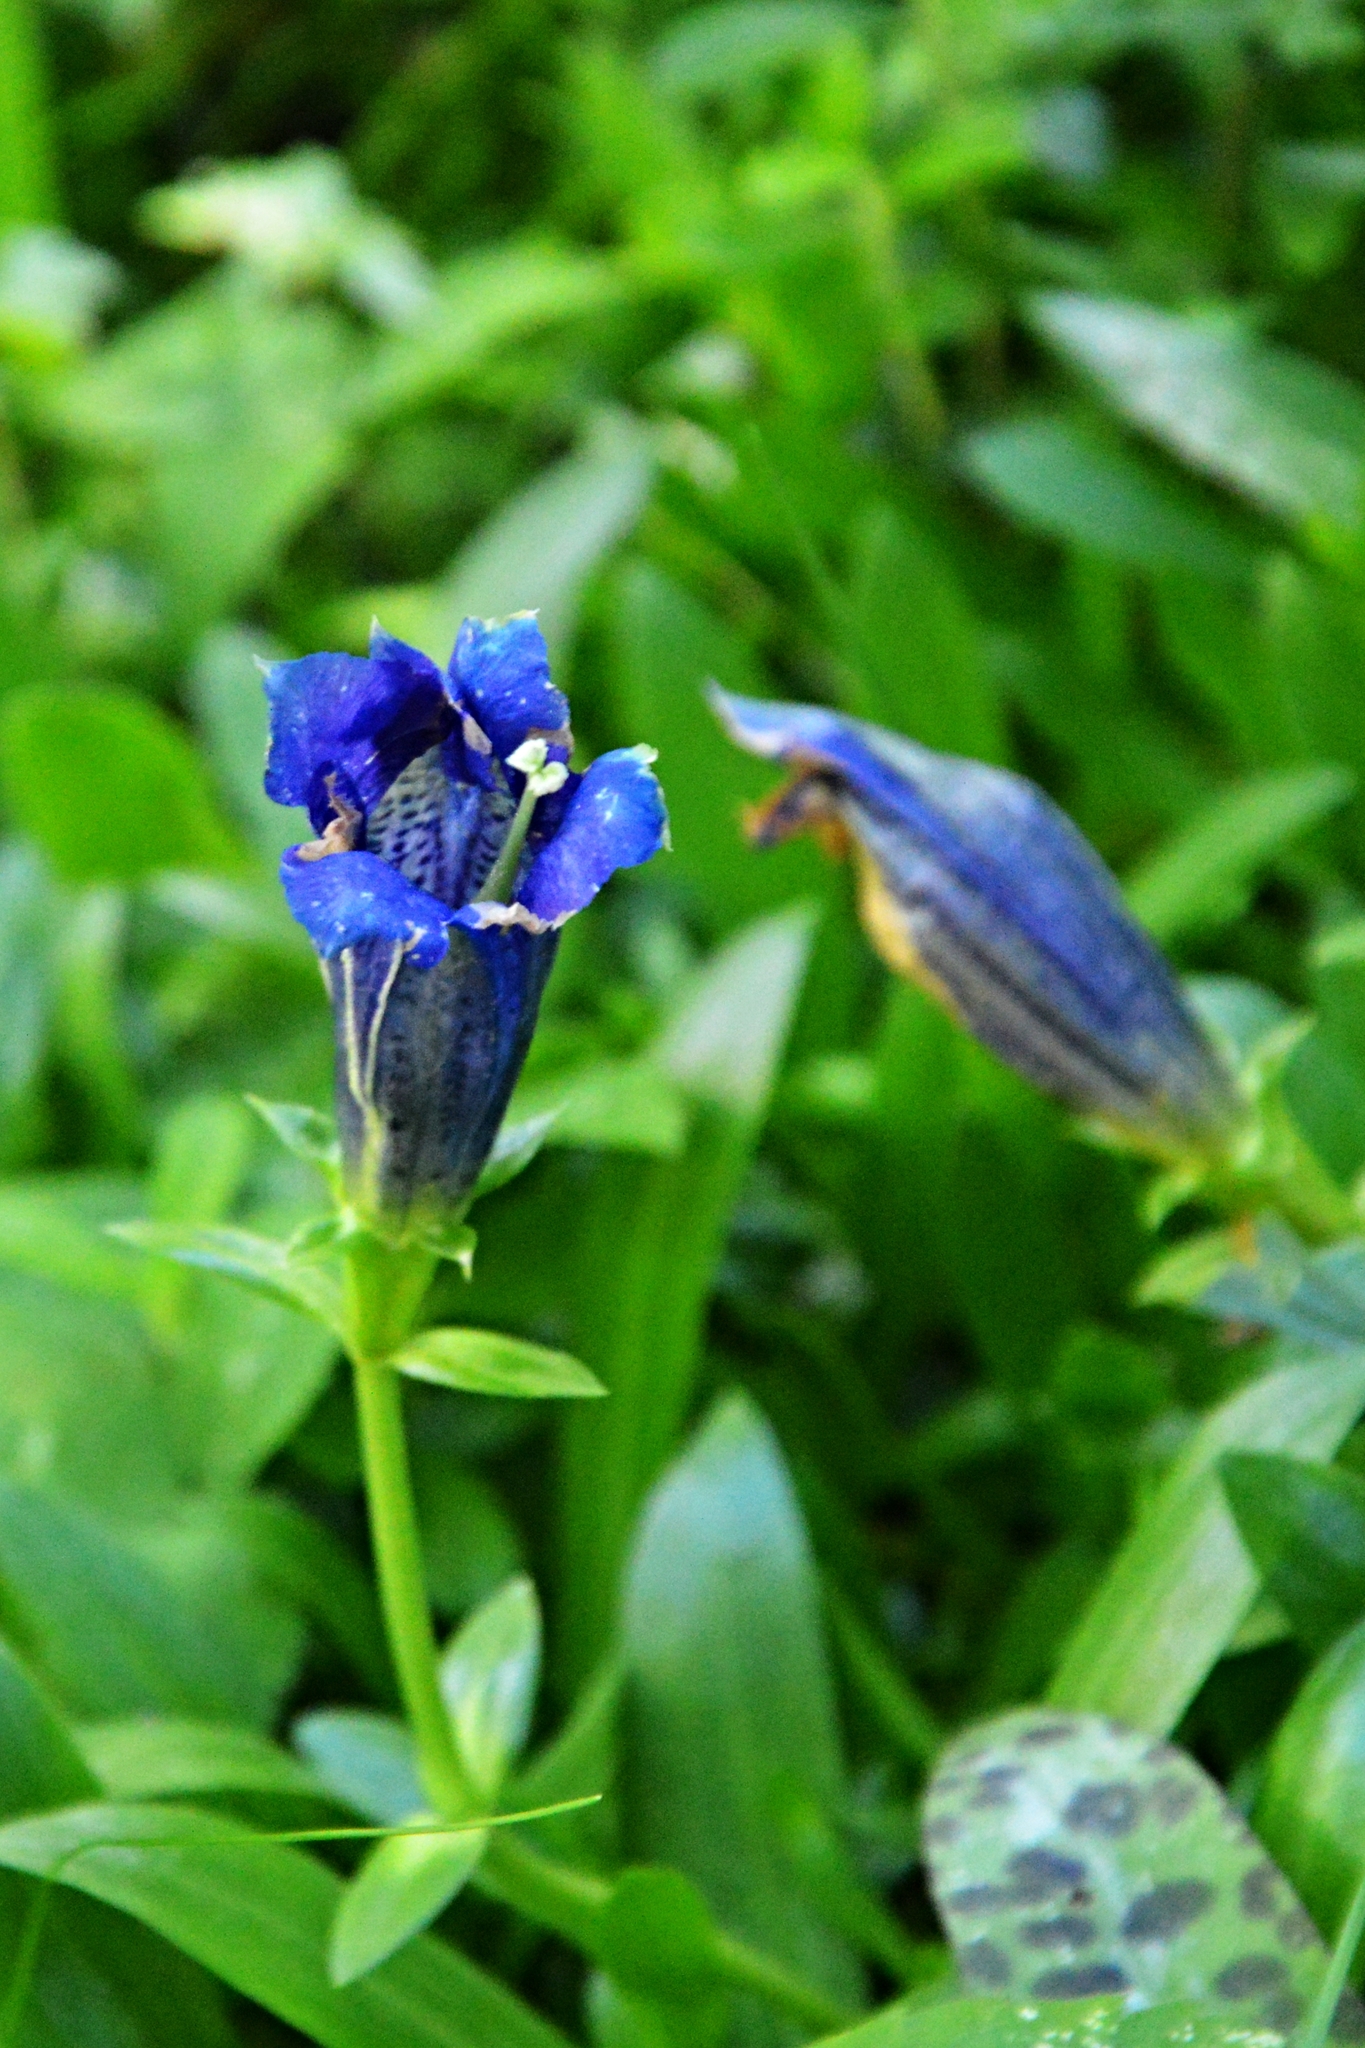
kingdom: Plantae
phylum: Tracheophyta
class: Magnoliopsida
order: Gentianales
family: Gentianaceae
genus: Gentiana
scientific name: Gentiana acaulis
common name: Trumpet gentian
